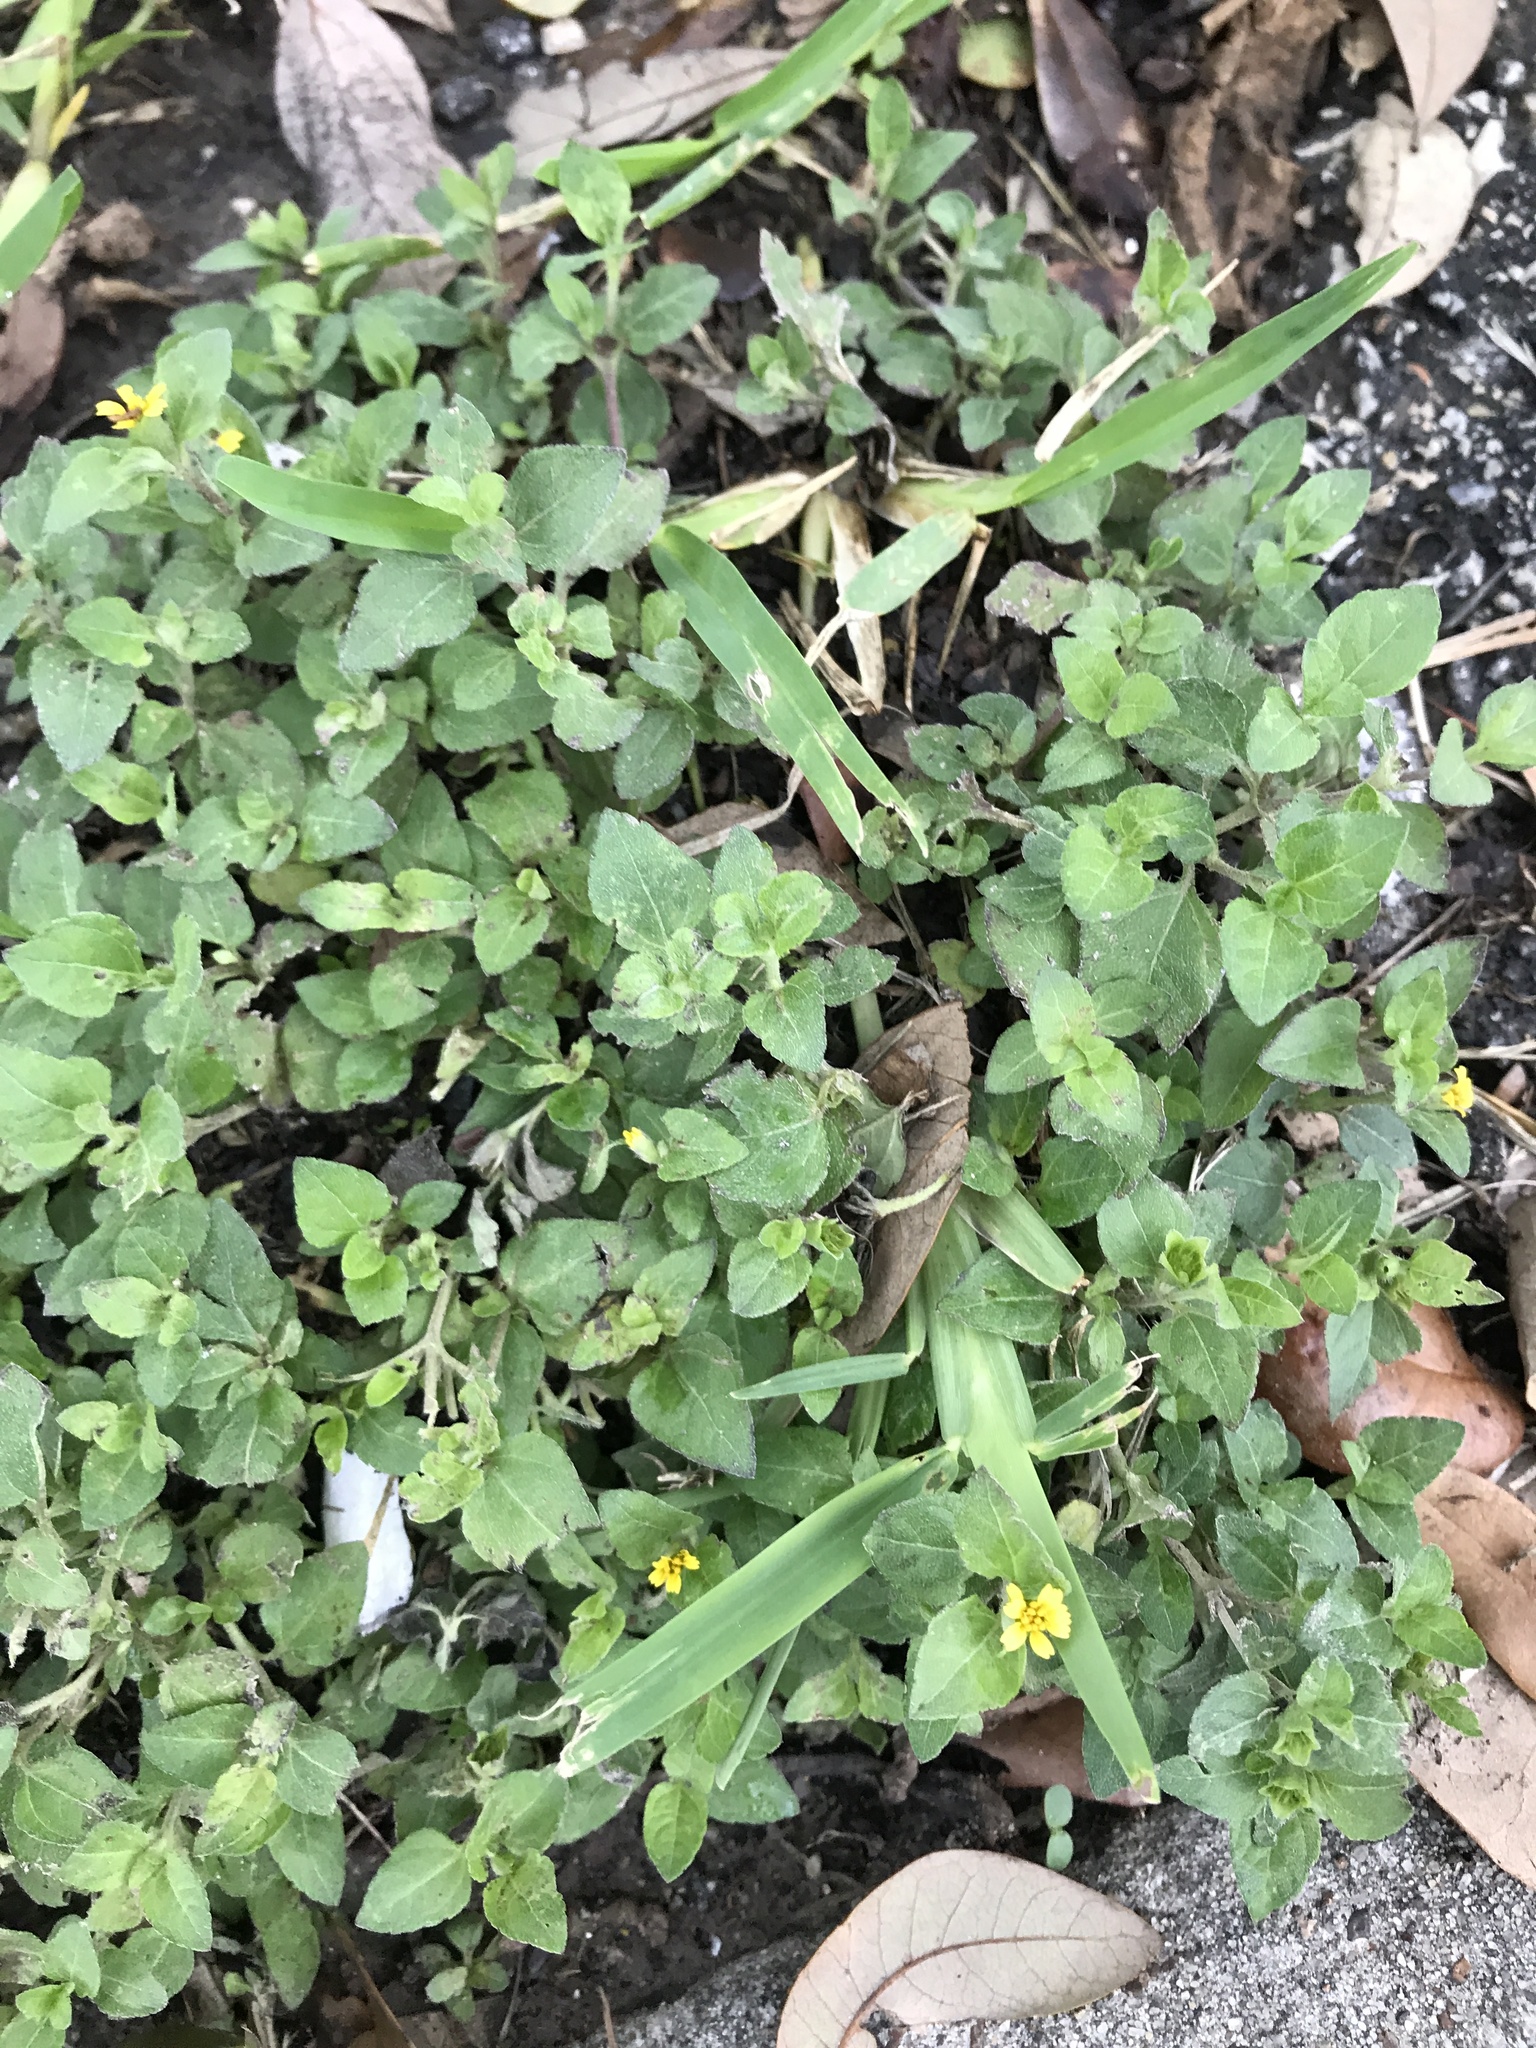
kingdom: Plantae
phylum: Tracheophyta
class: Magnoliopsida
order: Asterales
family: Asteraceae
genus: Calyptocarpus
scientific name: Calyptocarpus vialis
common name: Straggler daisy
